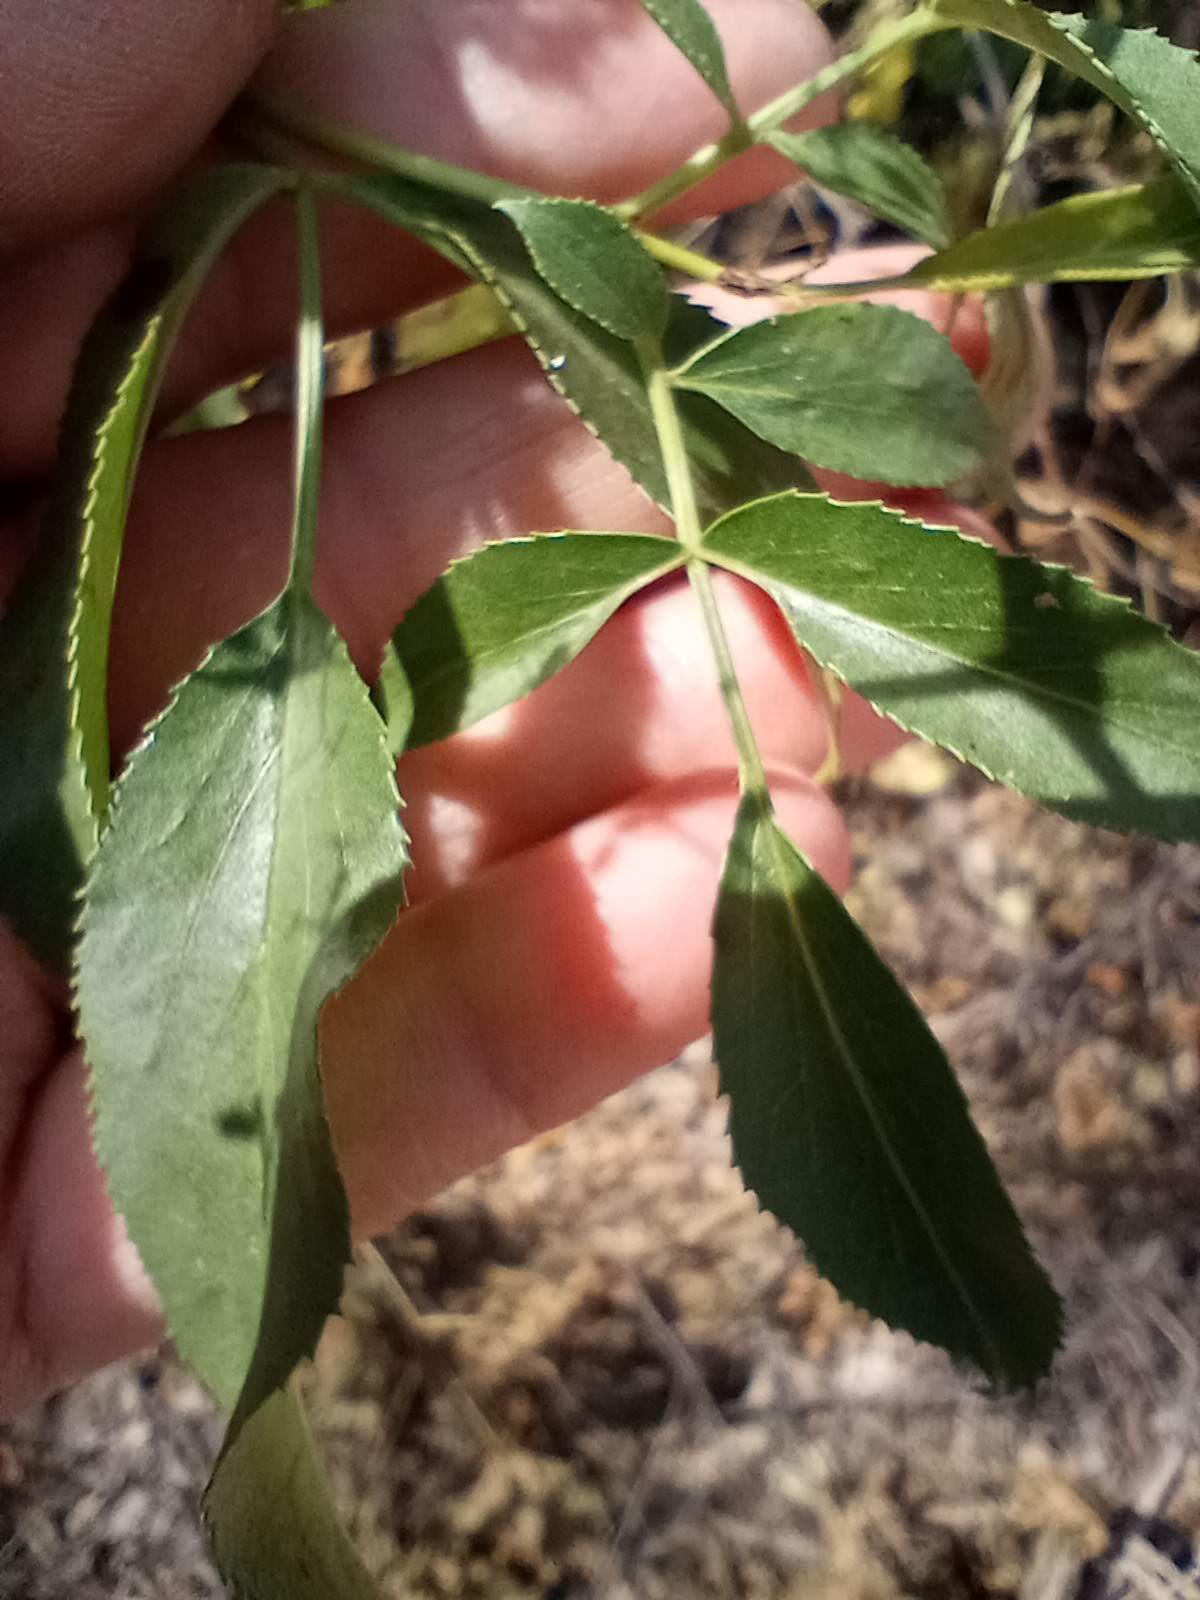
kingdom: Plantae
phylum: Tracheophyta
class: Magnoliopsida
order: Dipsacales
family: Viburnaceae
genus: Sambucus
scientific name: Sambucus cerulea
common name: Blue elder
